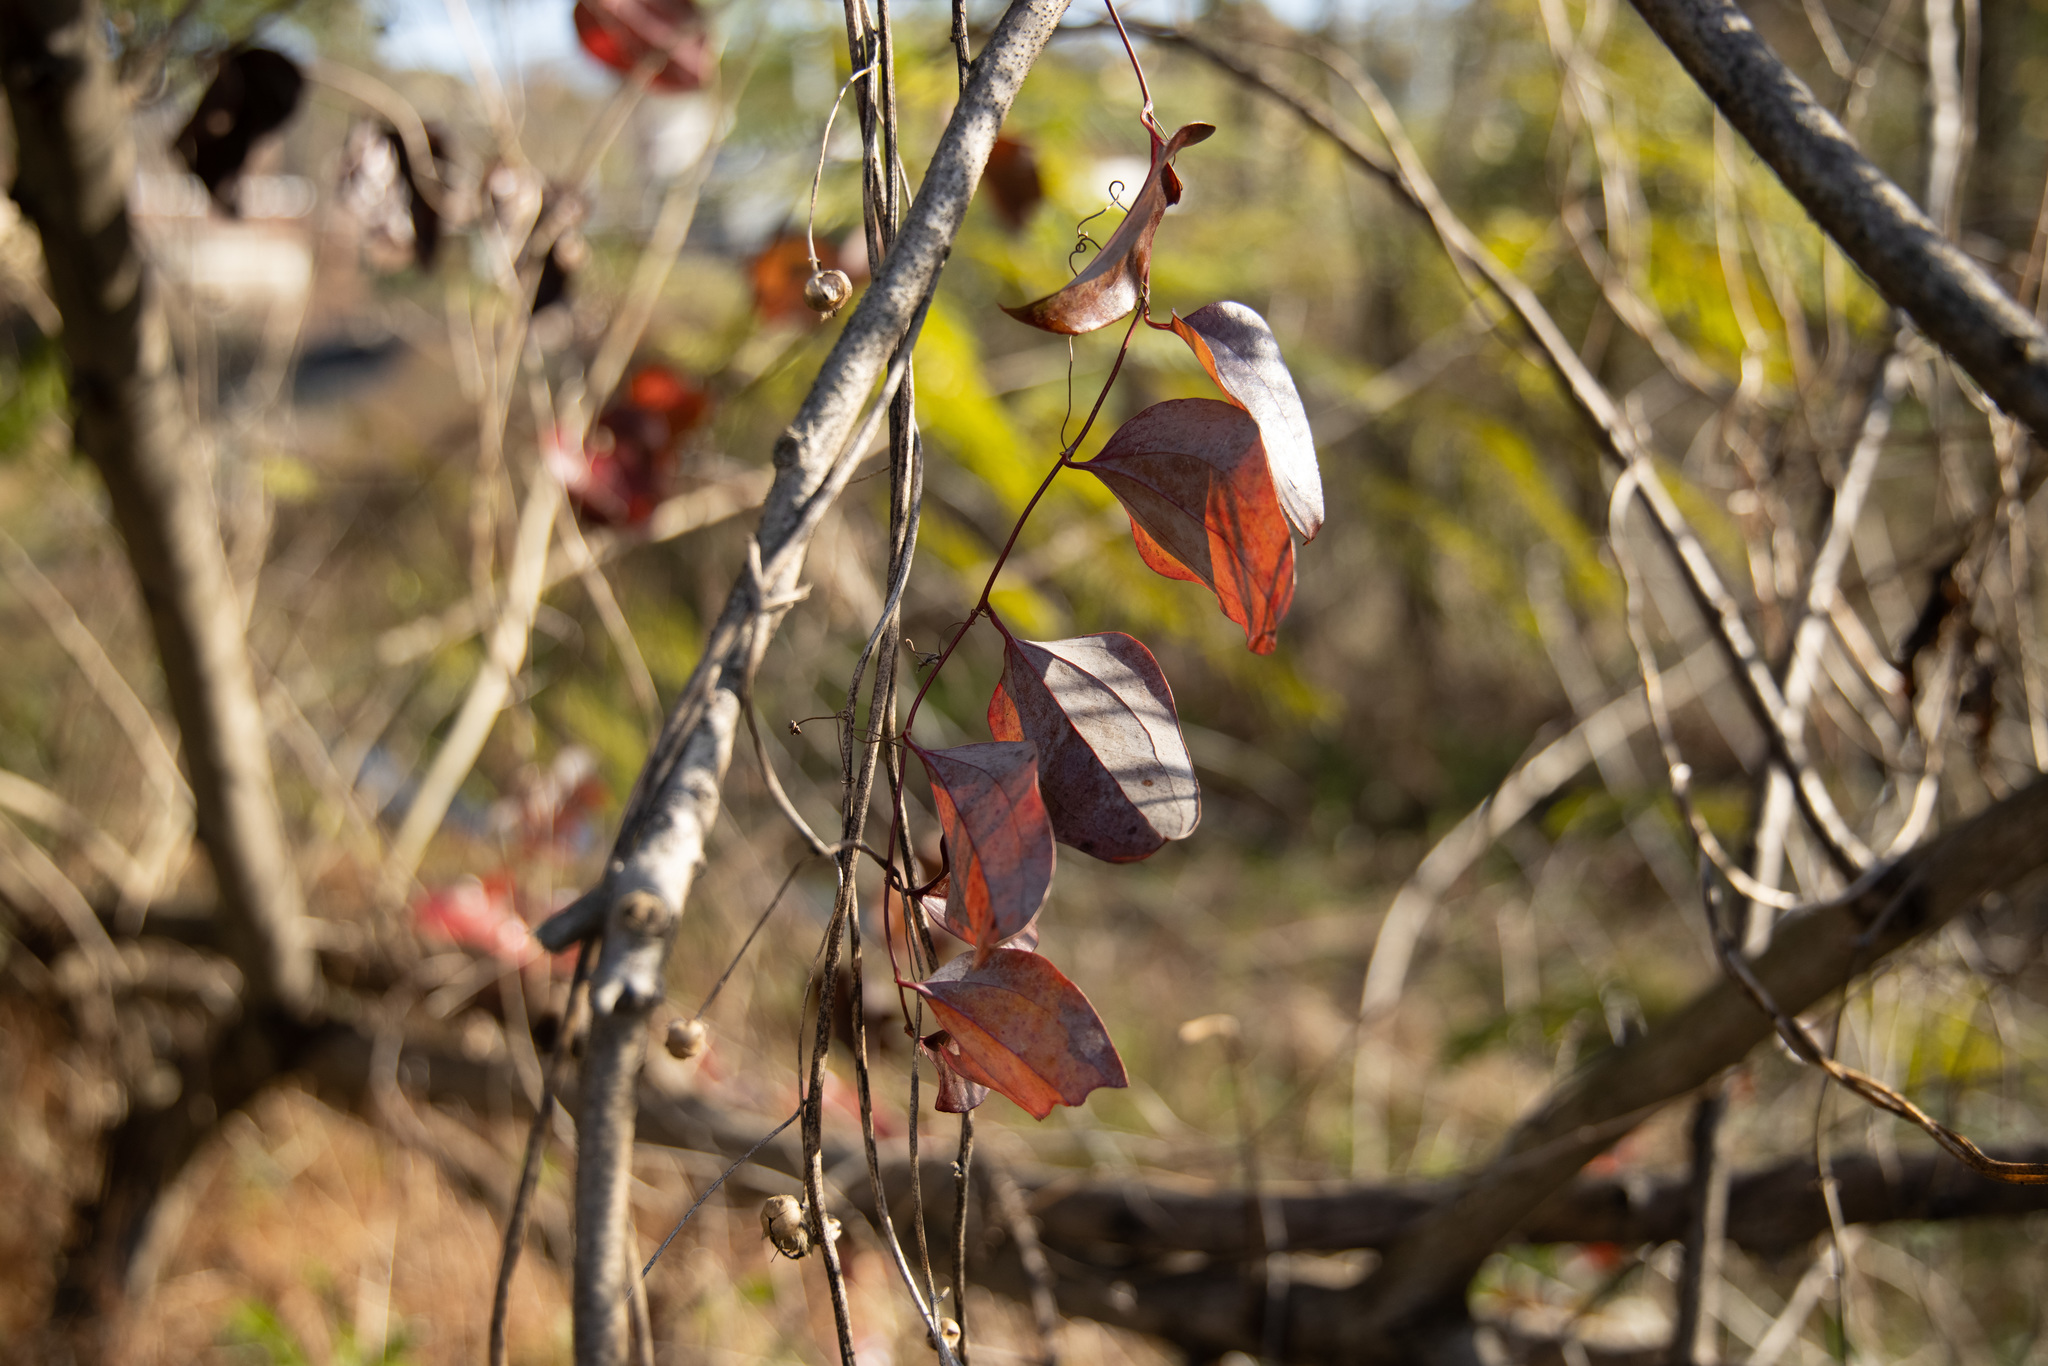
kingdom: Plantae
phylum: Tracheophyta
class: Liliopsida
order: Liliales
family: Smilacaceae
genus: Smilax
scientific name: Smilax glauca
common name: Cat greenbrier
